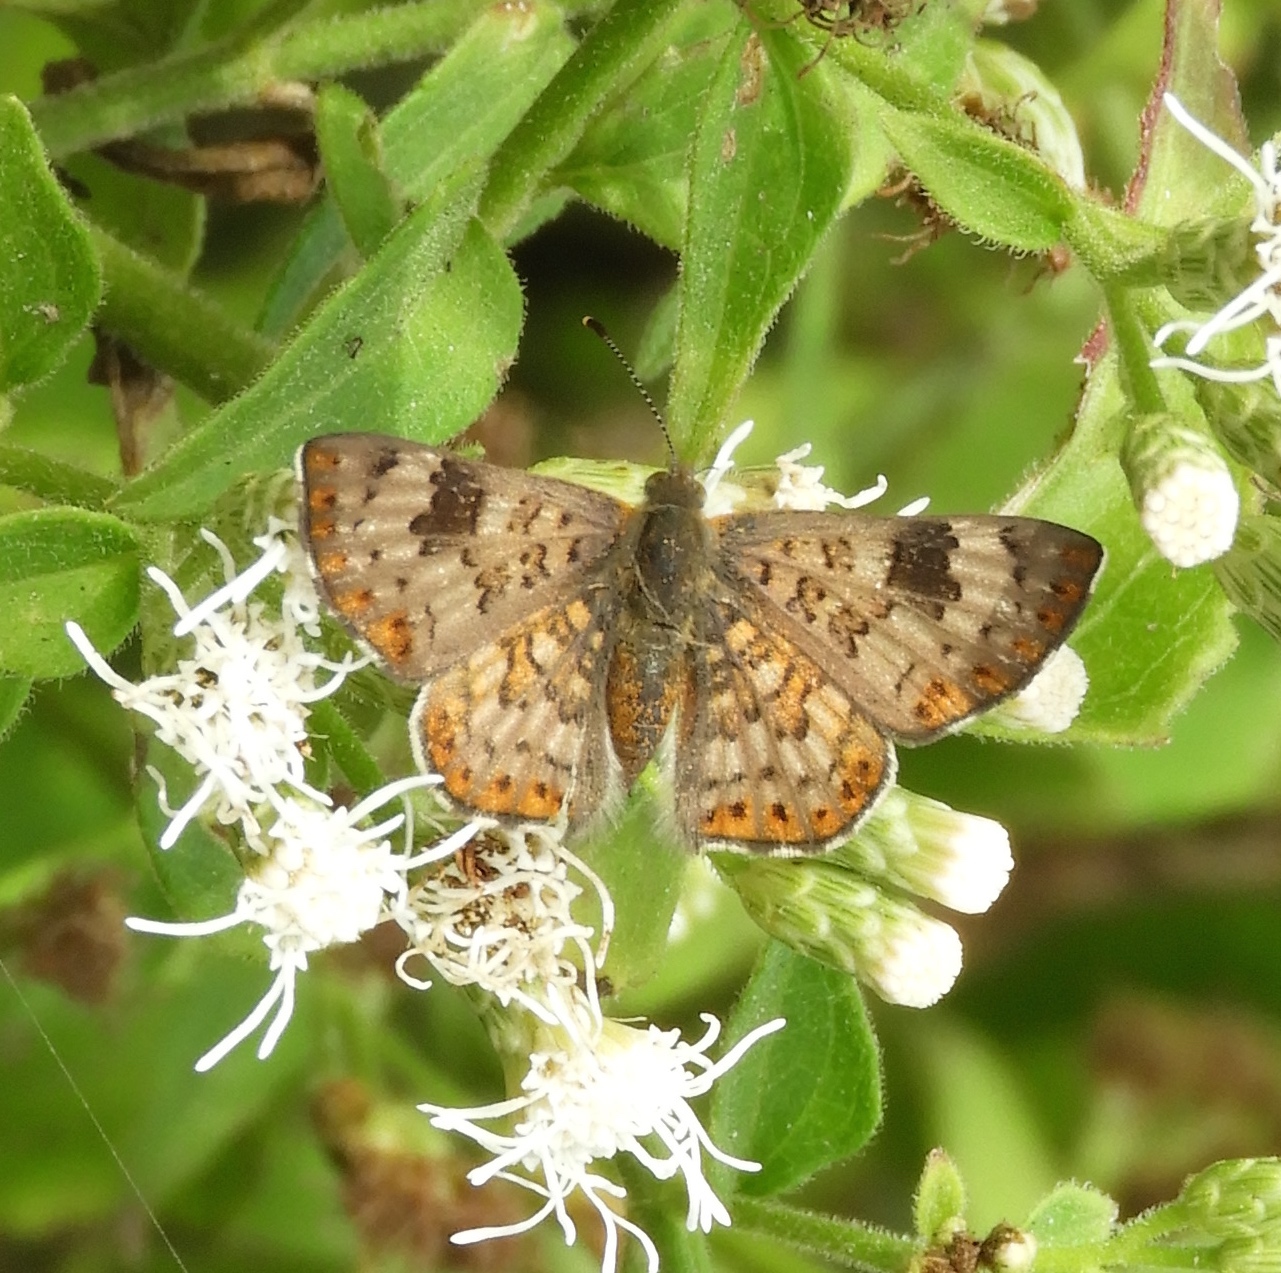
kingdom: Animalia
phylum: Arthropoda
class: Insecta
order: Lepidoptera
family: Riodinidae
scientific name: Riodinidae
